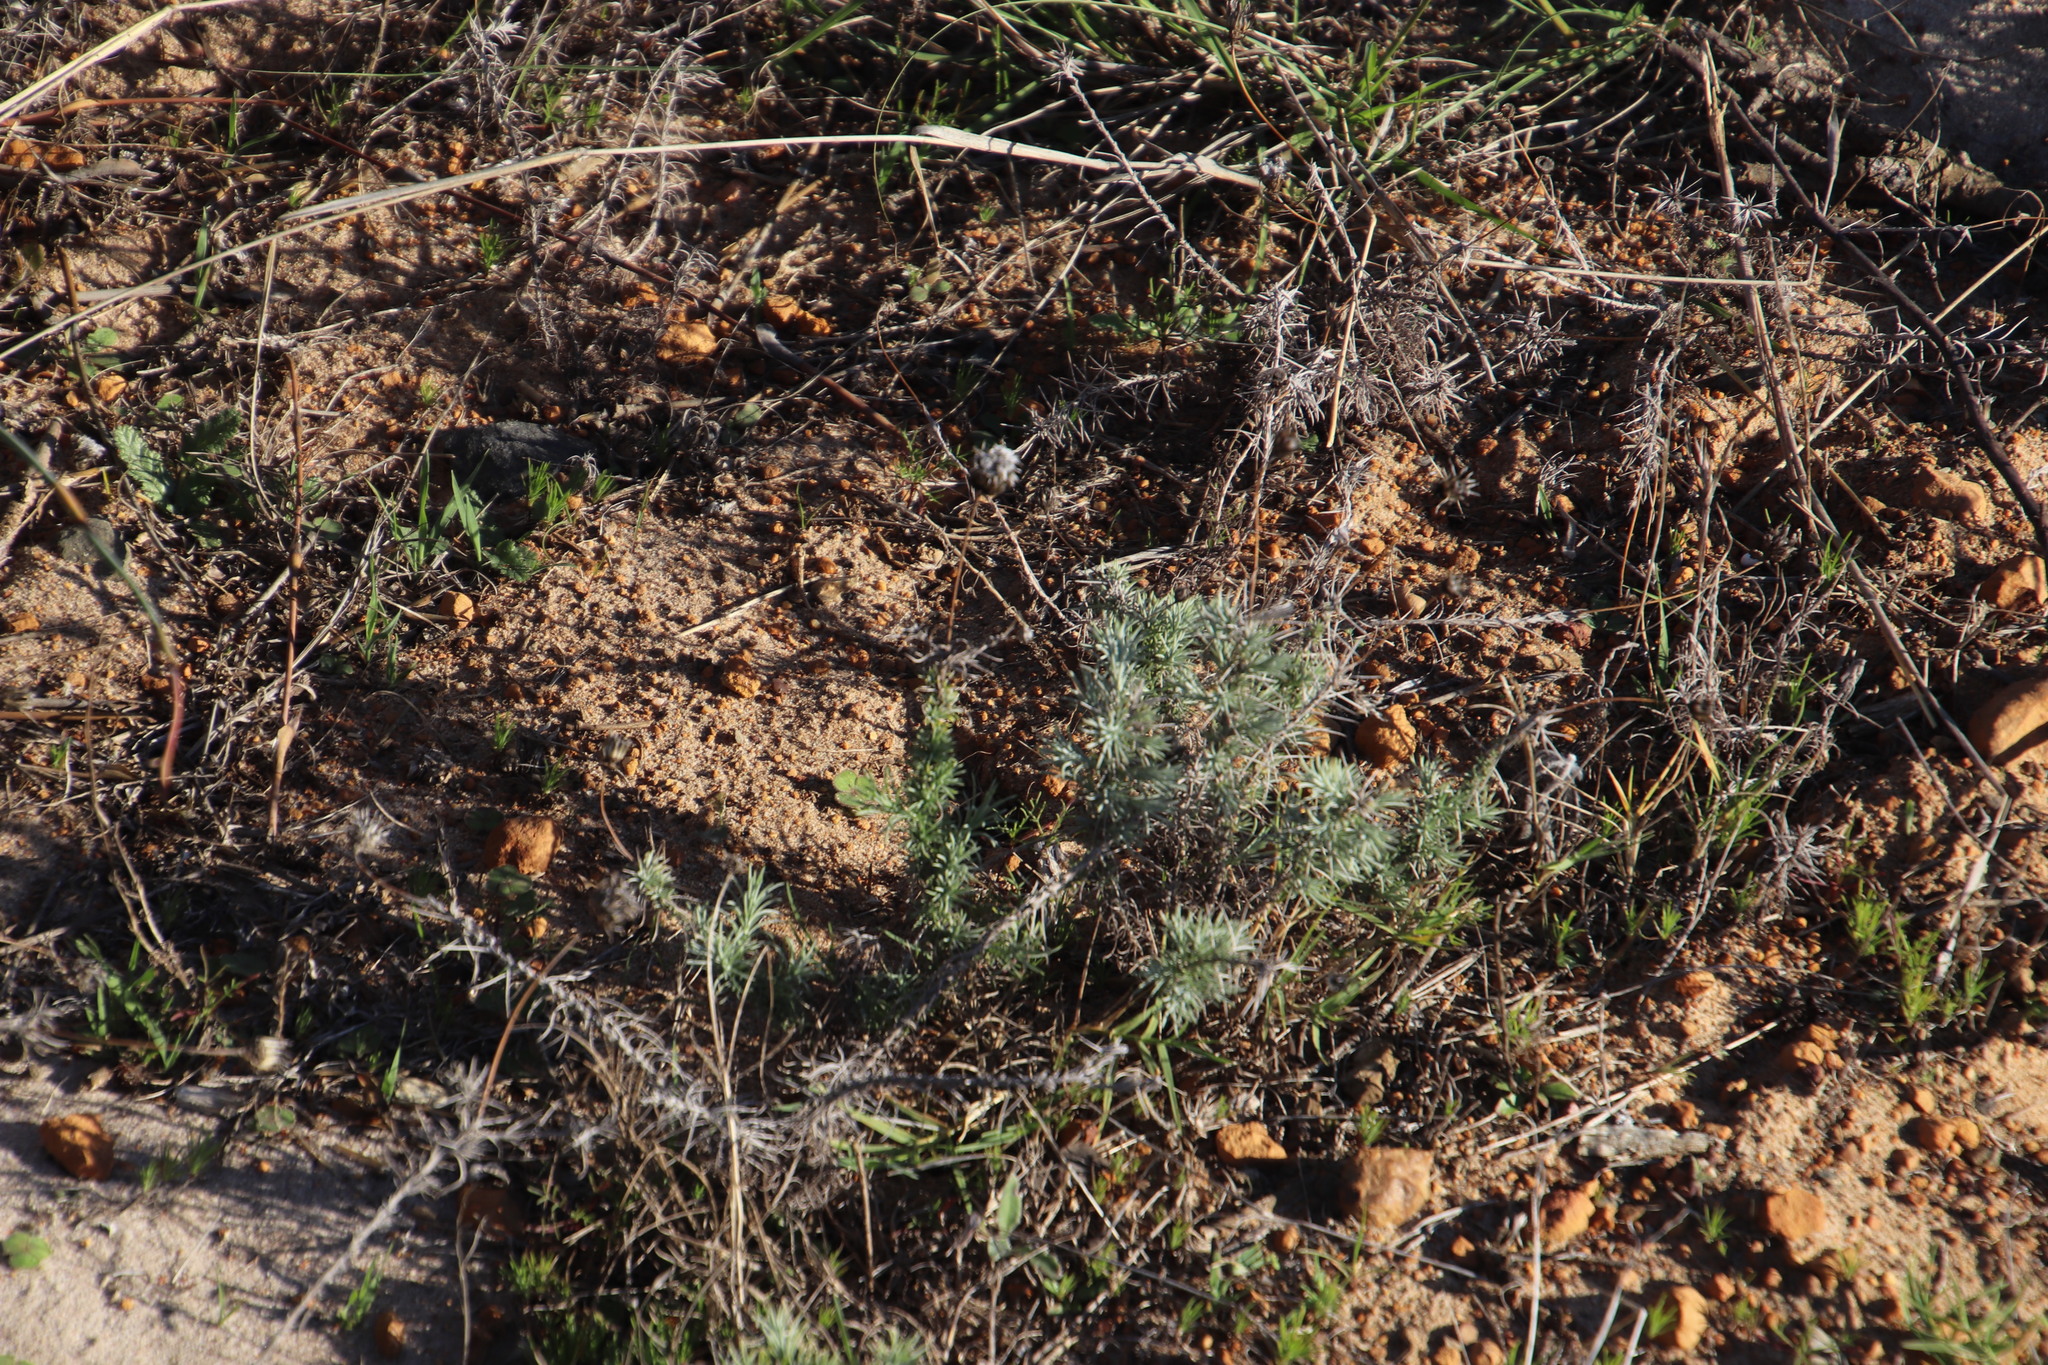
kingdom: Plantae
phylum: Tracheophyta
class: Magnoliopsida
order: Asterales
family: Asteraceae
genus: Leysera
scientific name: Leysera gnaphalodes
